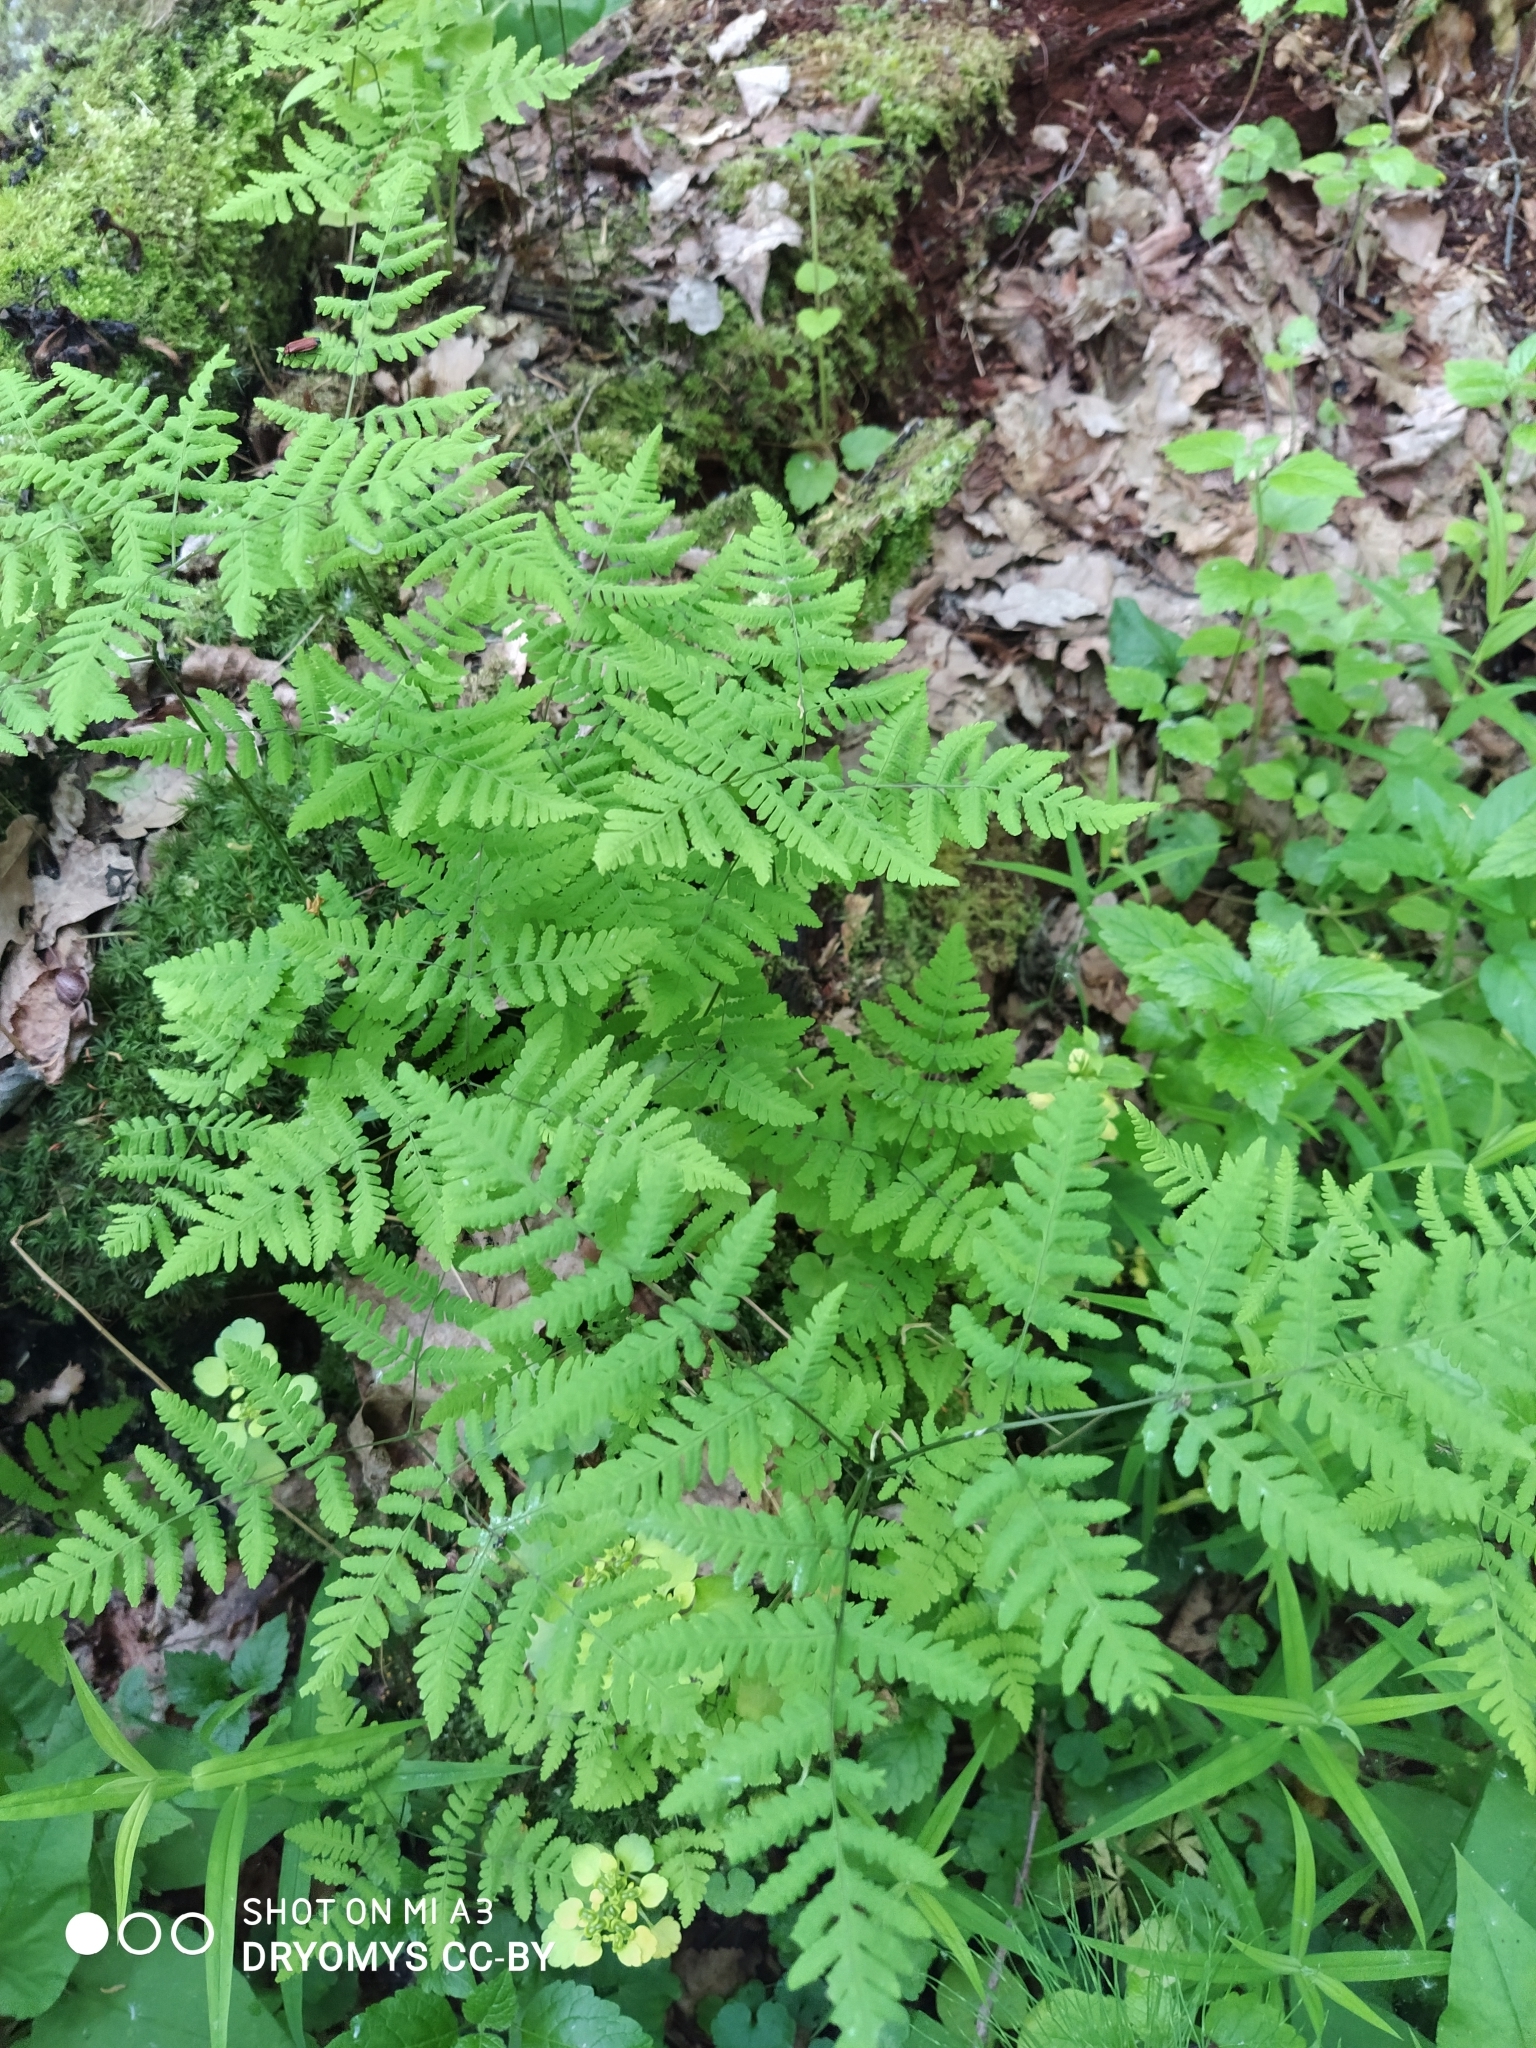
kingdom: Plantae
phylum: Tracheophyta
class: Polypodiopsida
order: Polypodiales
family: Cystopteridaceae
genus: Gymnocarpium
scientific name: Gymnocarpium dryopteris
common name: Oak fern
